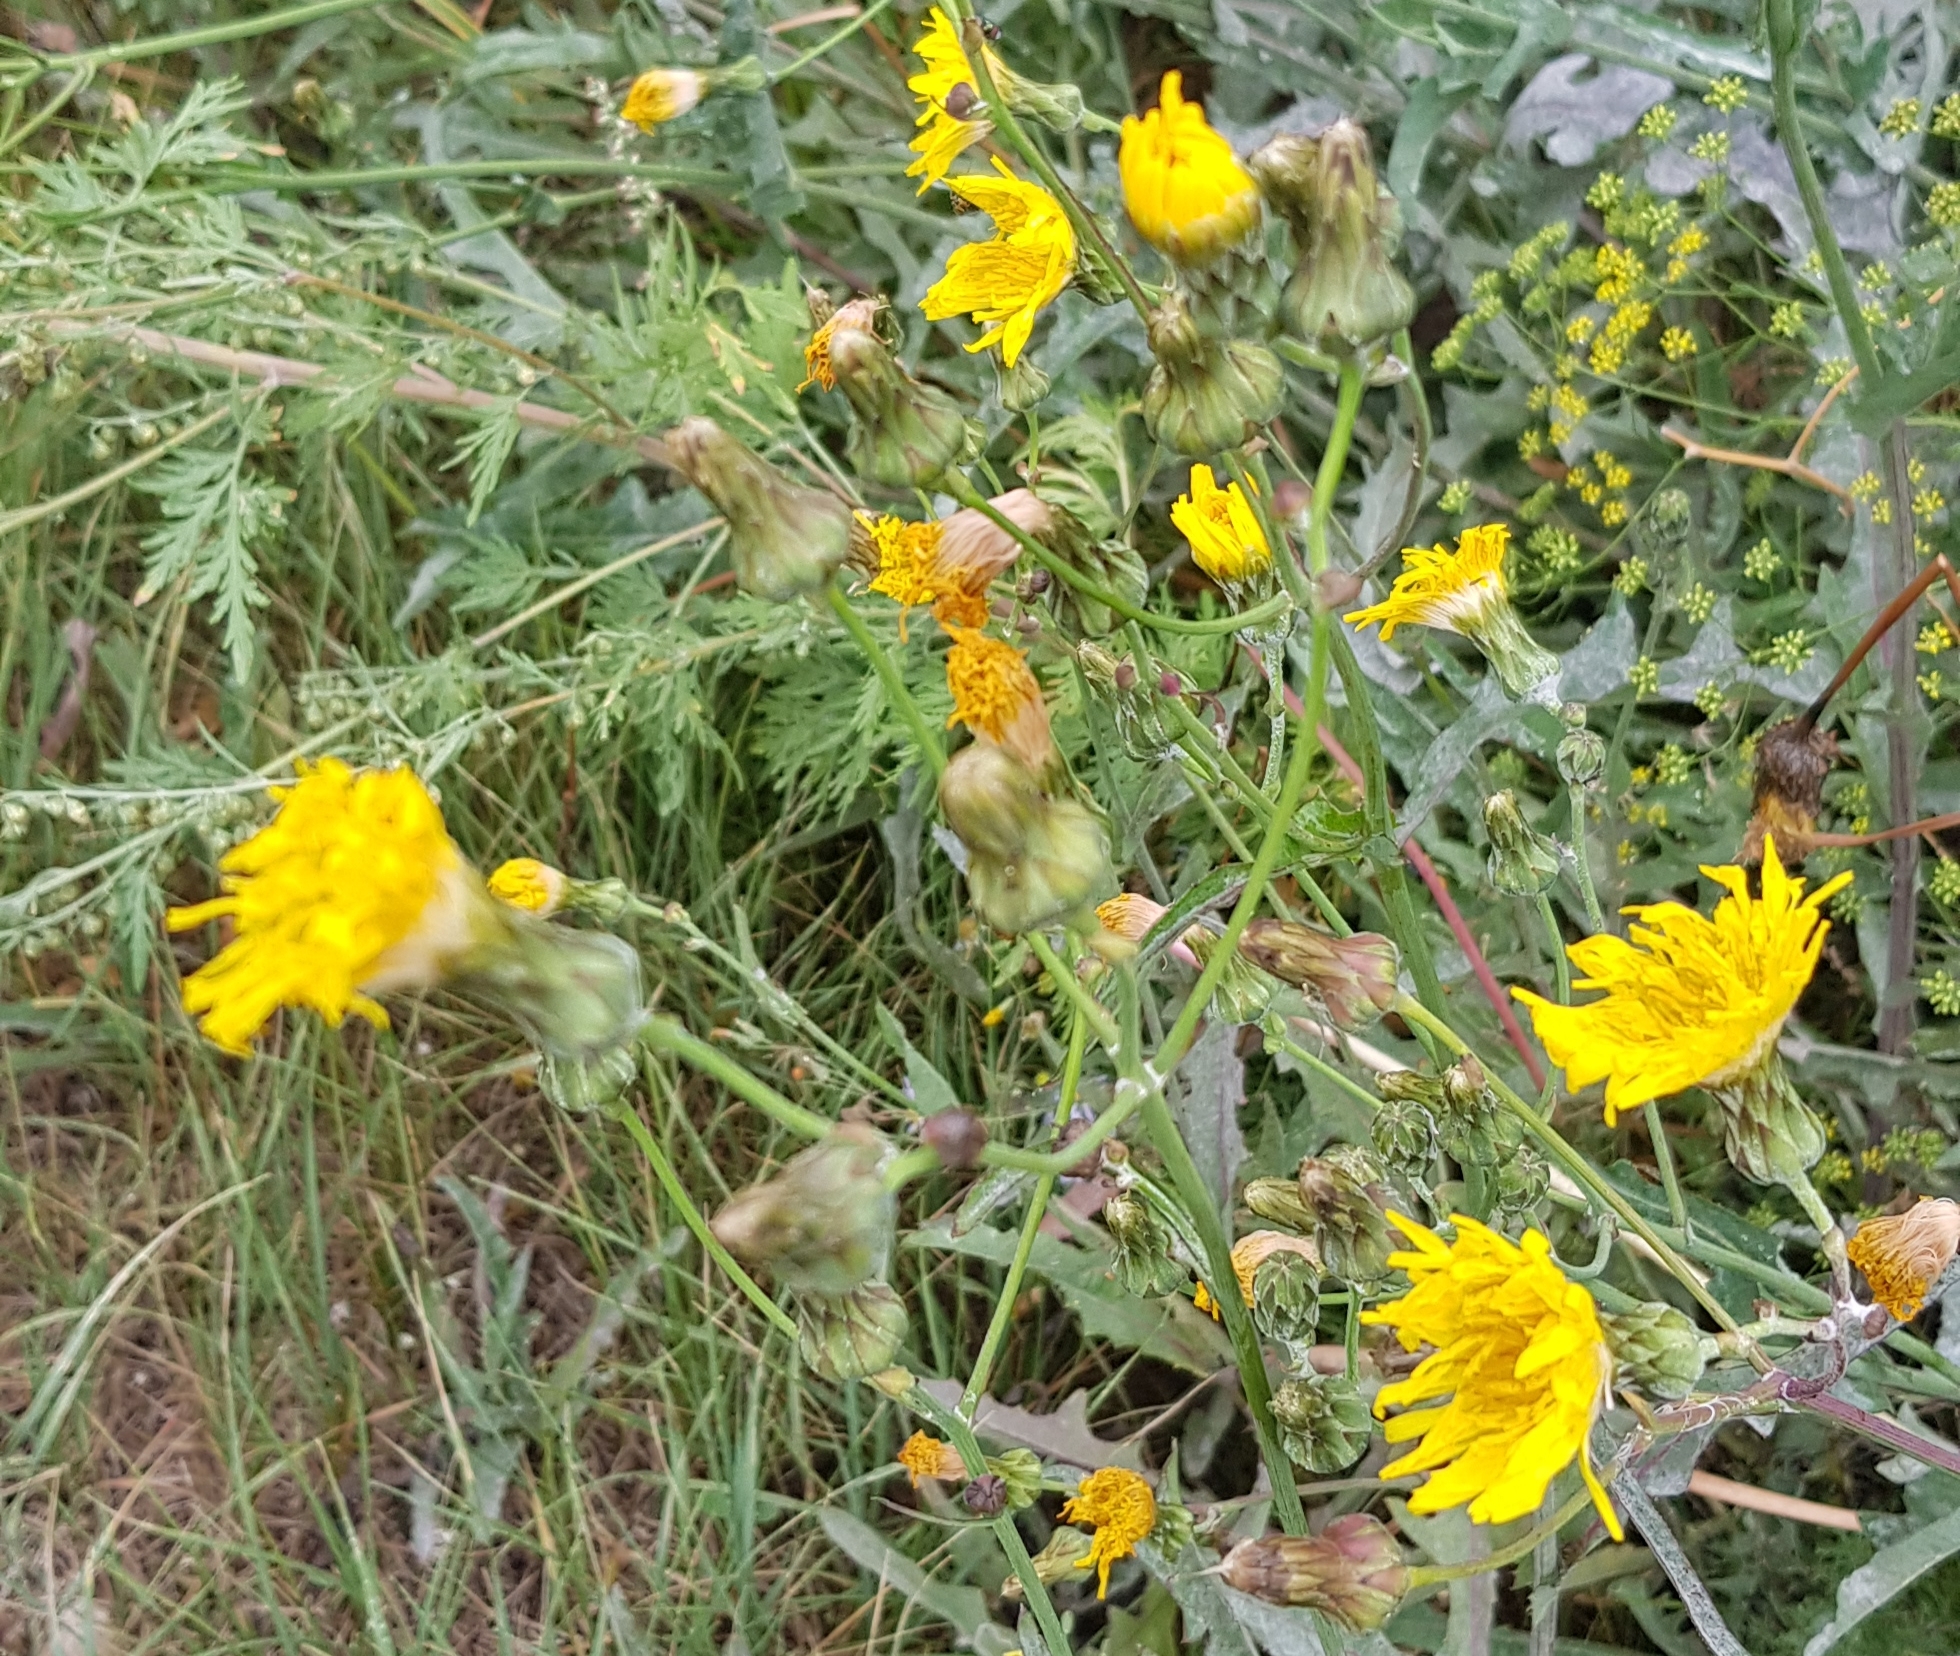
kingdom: Plantae
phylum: Tracheophyta
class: Magnoliopsida
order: Asterales
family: Asteraceae
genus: Sonchus
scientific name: Sonchus oleraceus
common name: Common sowthistle
